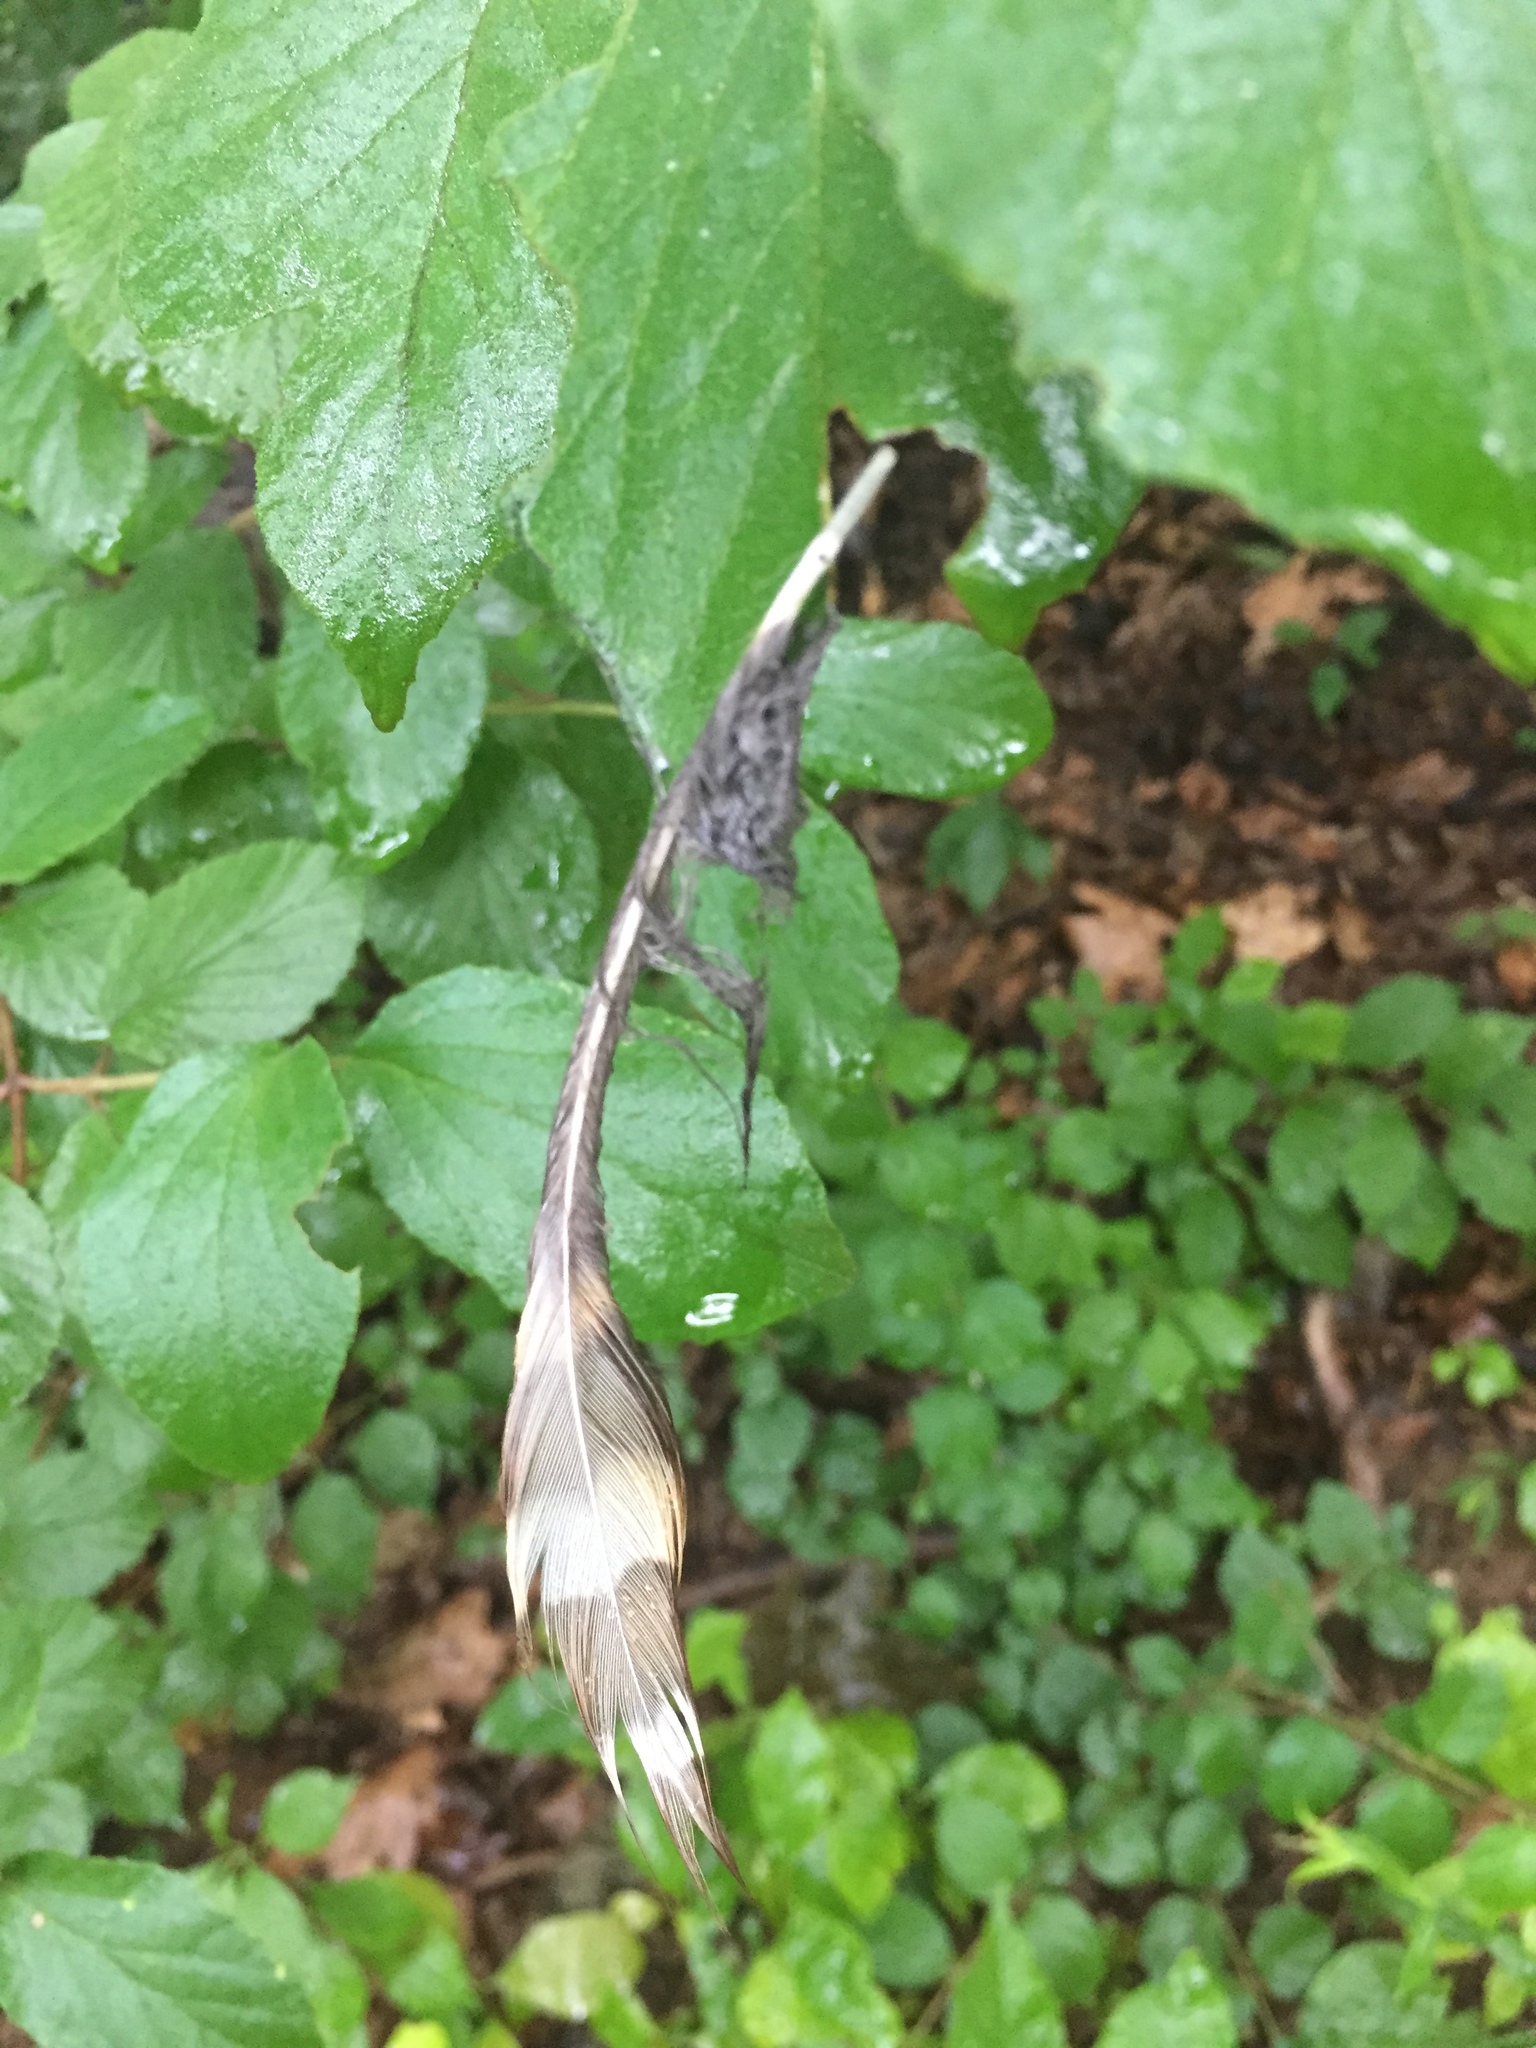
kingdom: Animalia
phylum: Chordata
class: Aves
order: Strigiformes
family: Strigidae
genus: Strix
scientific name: Strix varia
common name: Barred owl
